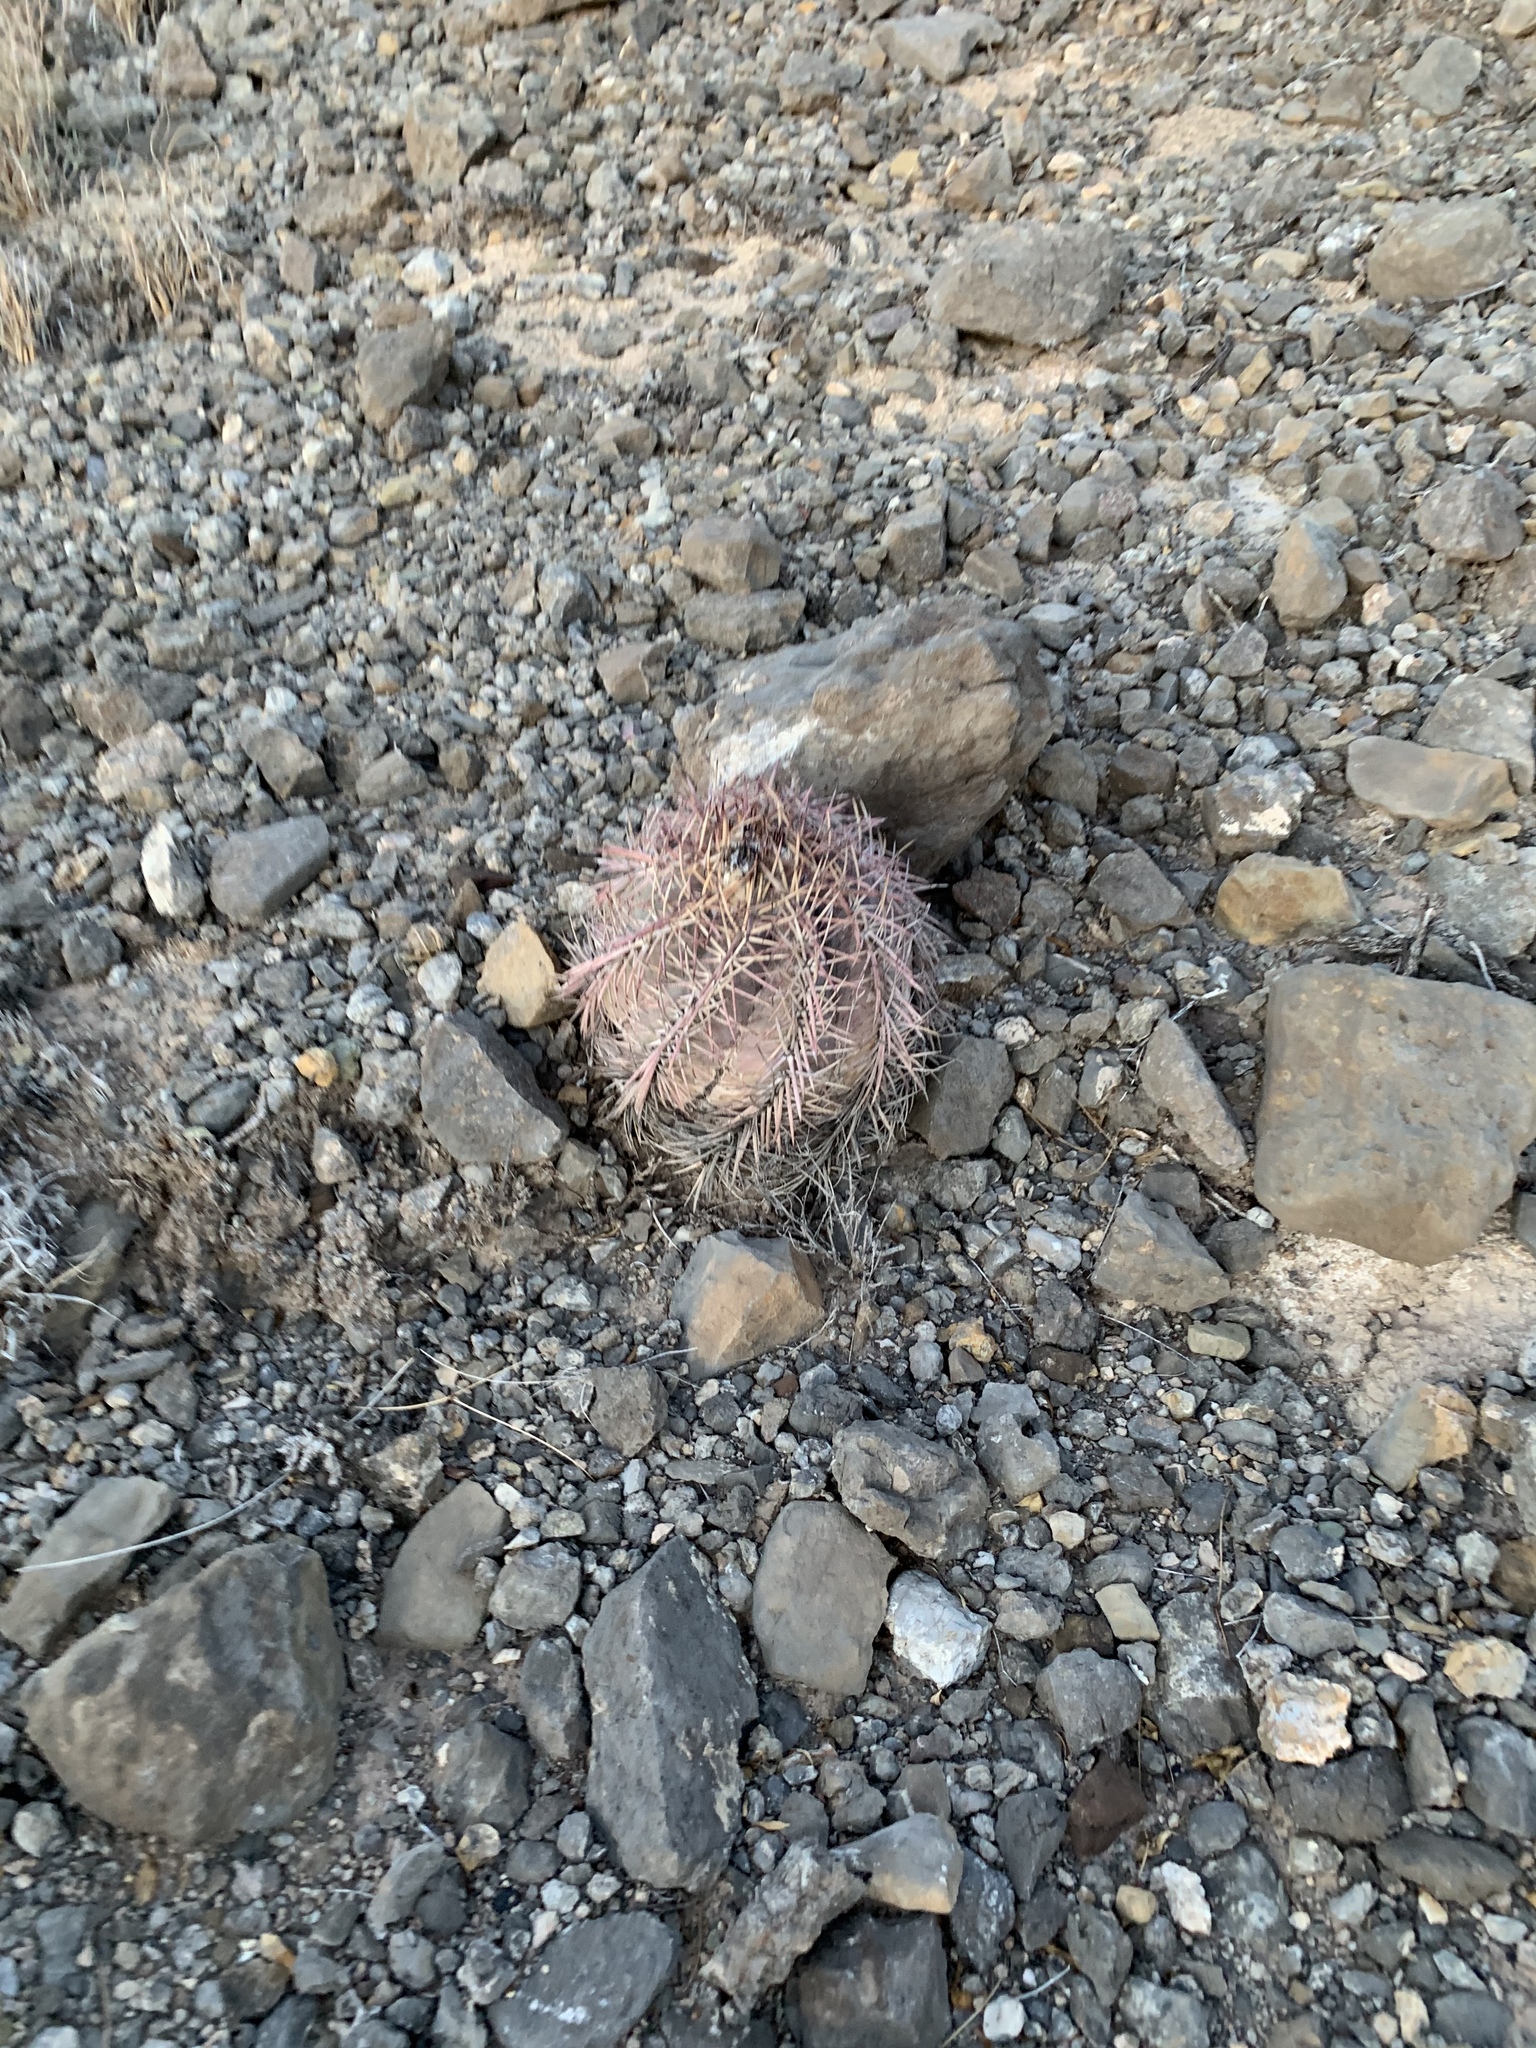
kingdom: Plantae
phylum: Tracheophyta
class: Magnoliopsida
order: Caryophyllales
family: Cactaceae
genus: Echinocactus
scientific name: Echinocactus horizonthalonius
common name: Devilshead
